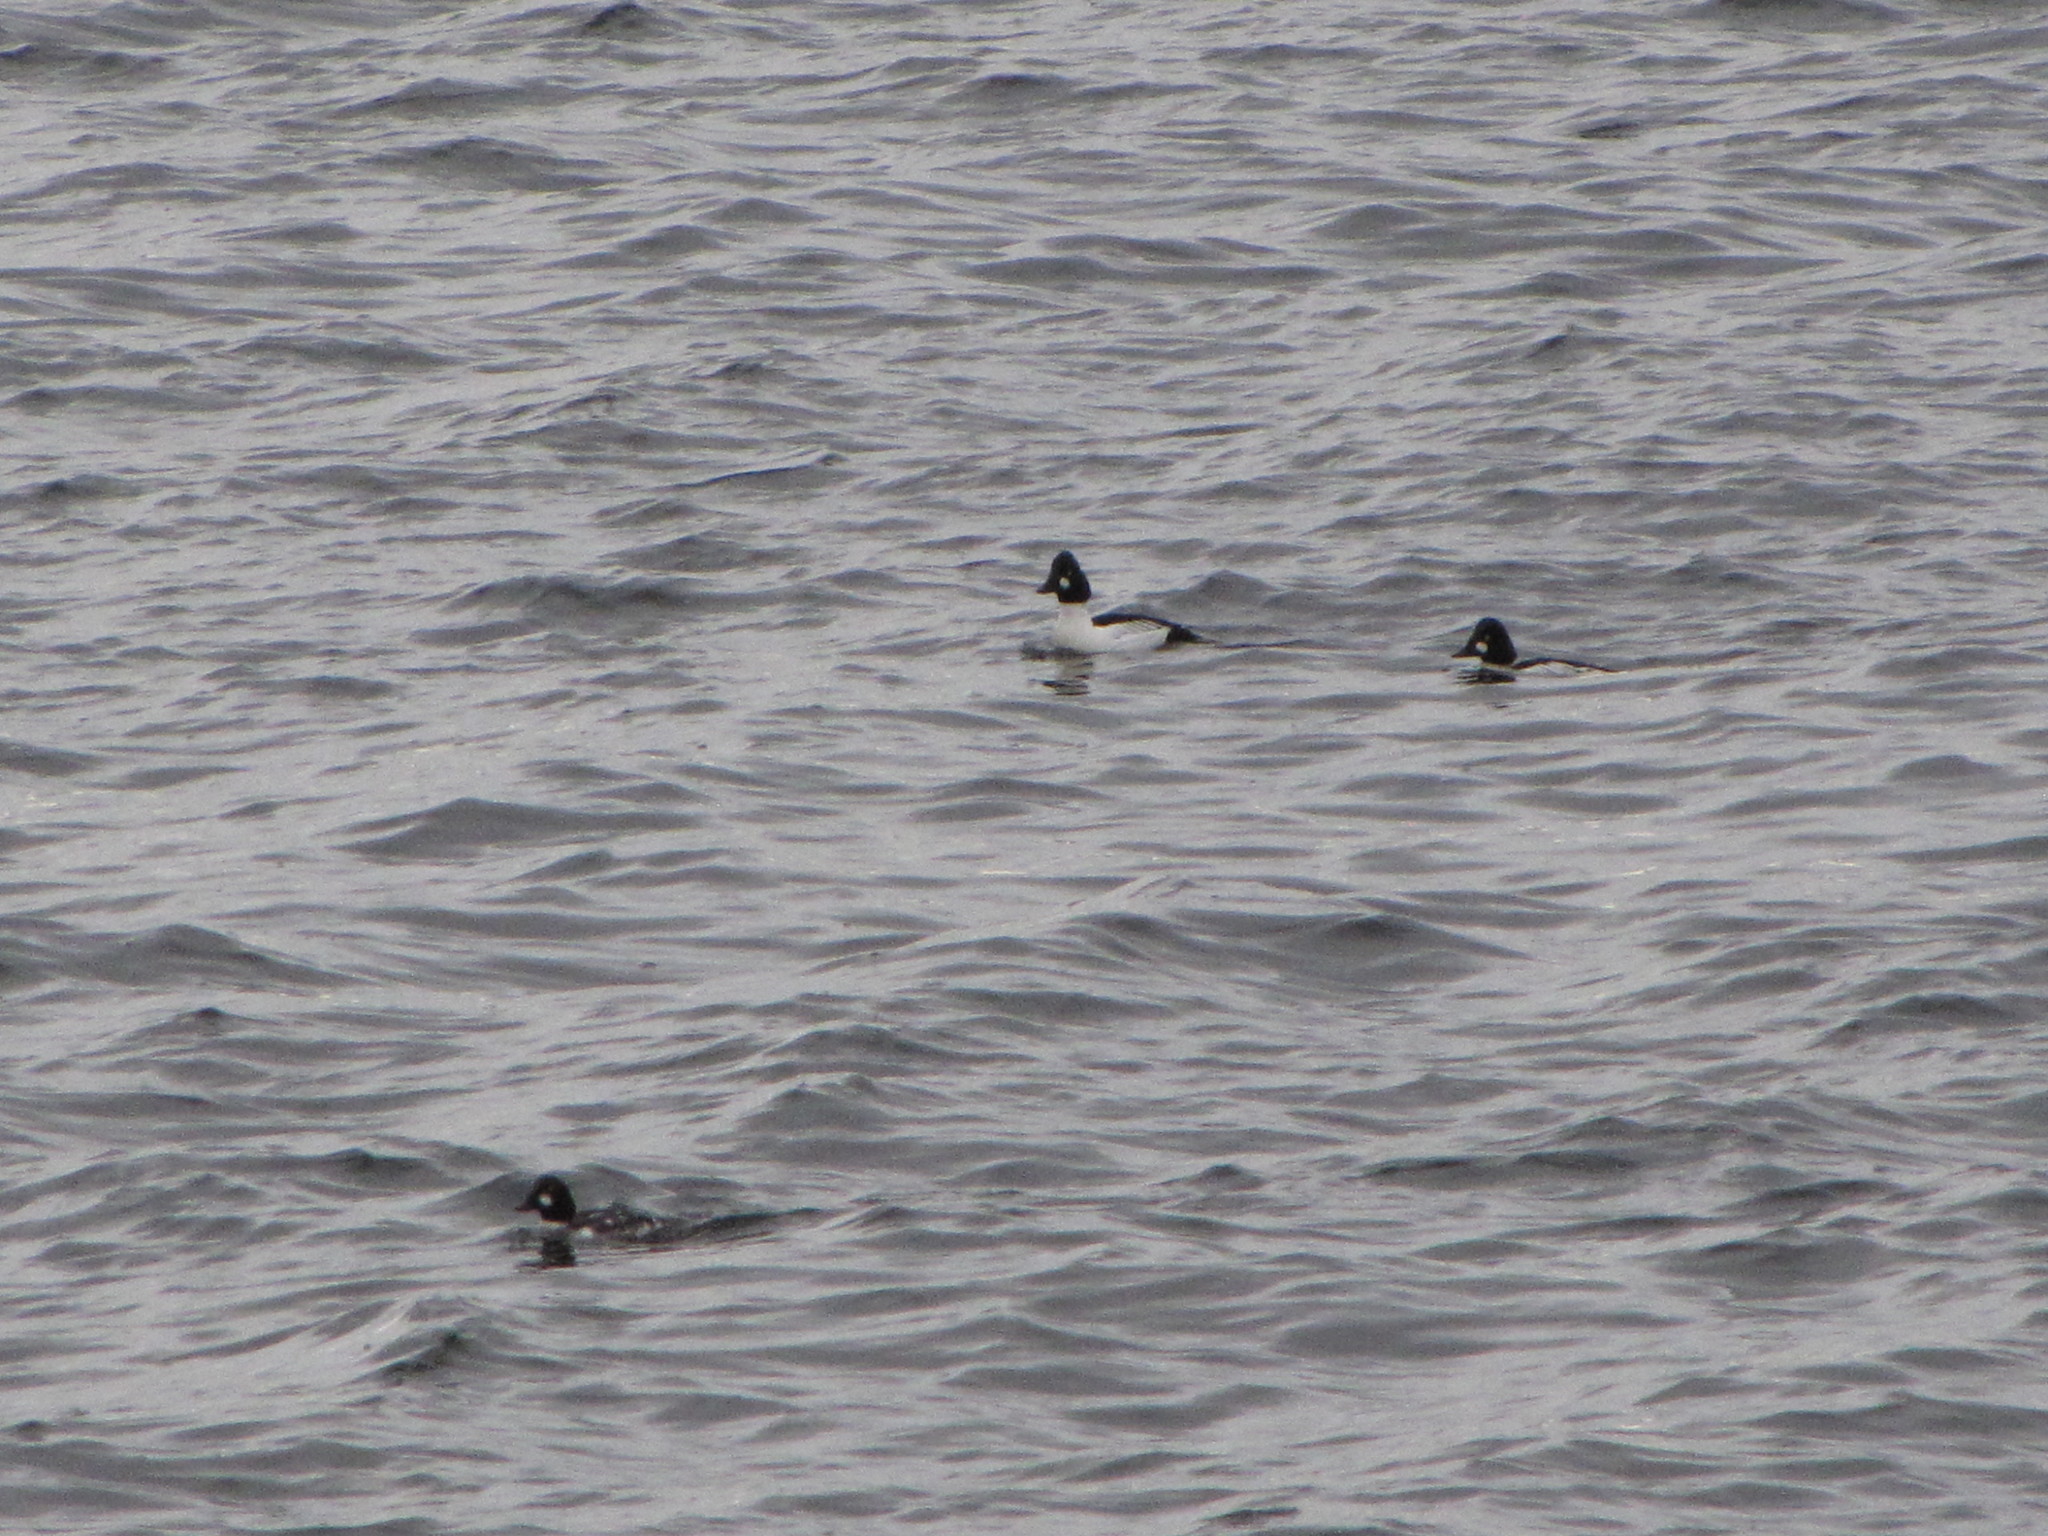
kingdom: Animalia
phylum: Chordata
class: Aves
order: Anseriformes
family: Anatidae
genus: Bucephala
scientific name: Bucephala clangula
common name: Common goldeneye
